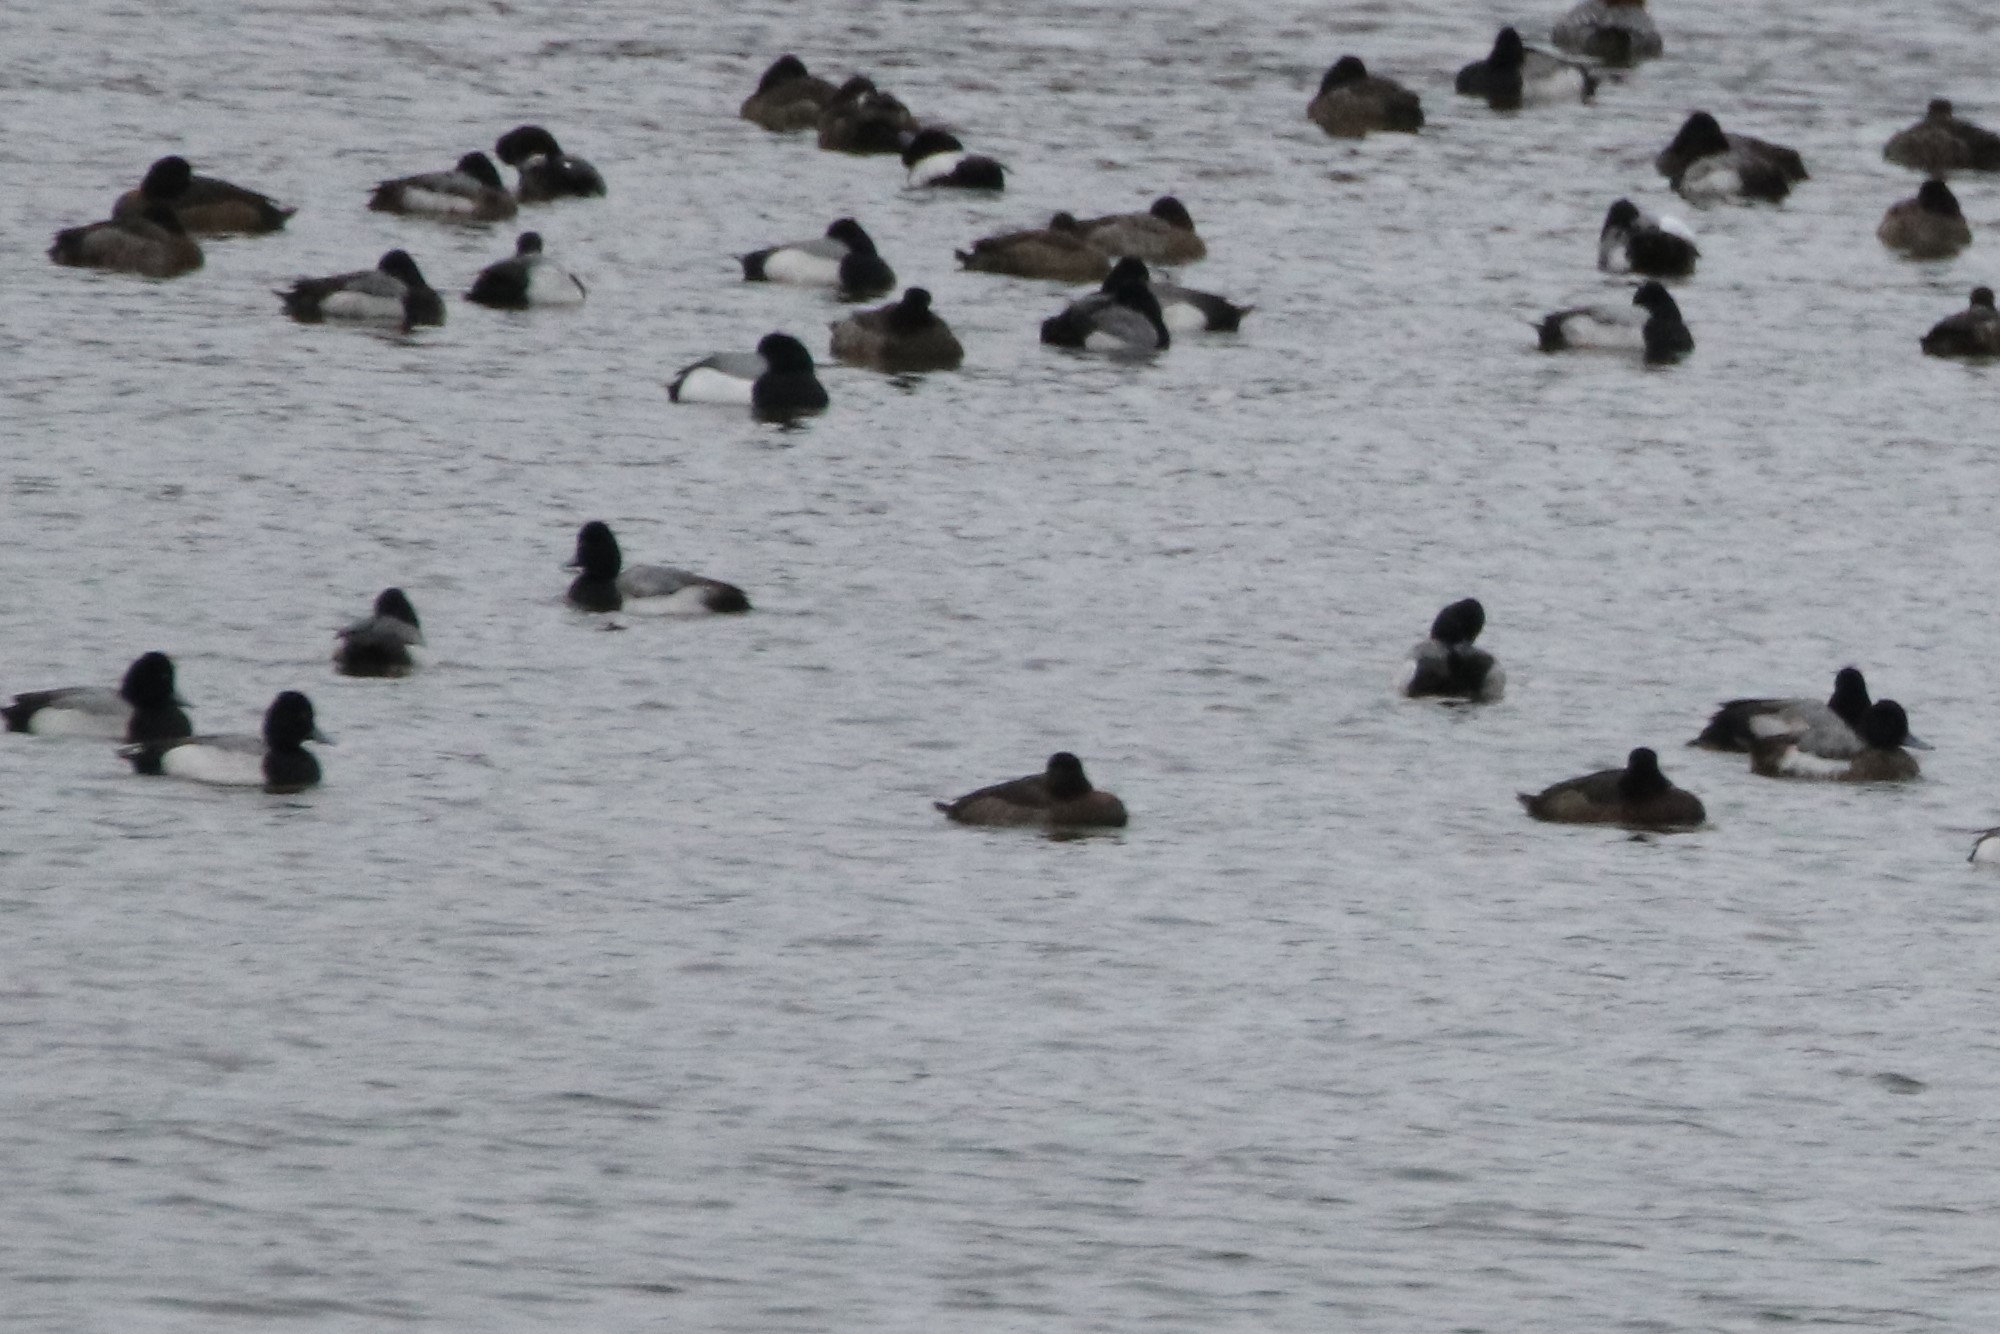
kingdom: Animalia
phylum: Chordata
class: Aves
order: Anseriformes
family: Anatidae
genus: Aythya
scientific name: Aythya affinis
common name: Lesser scaup
